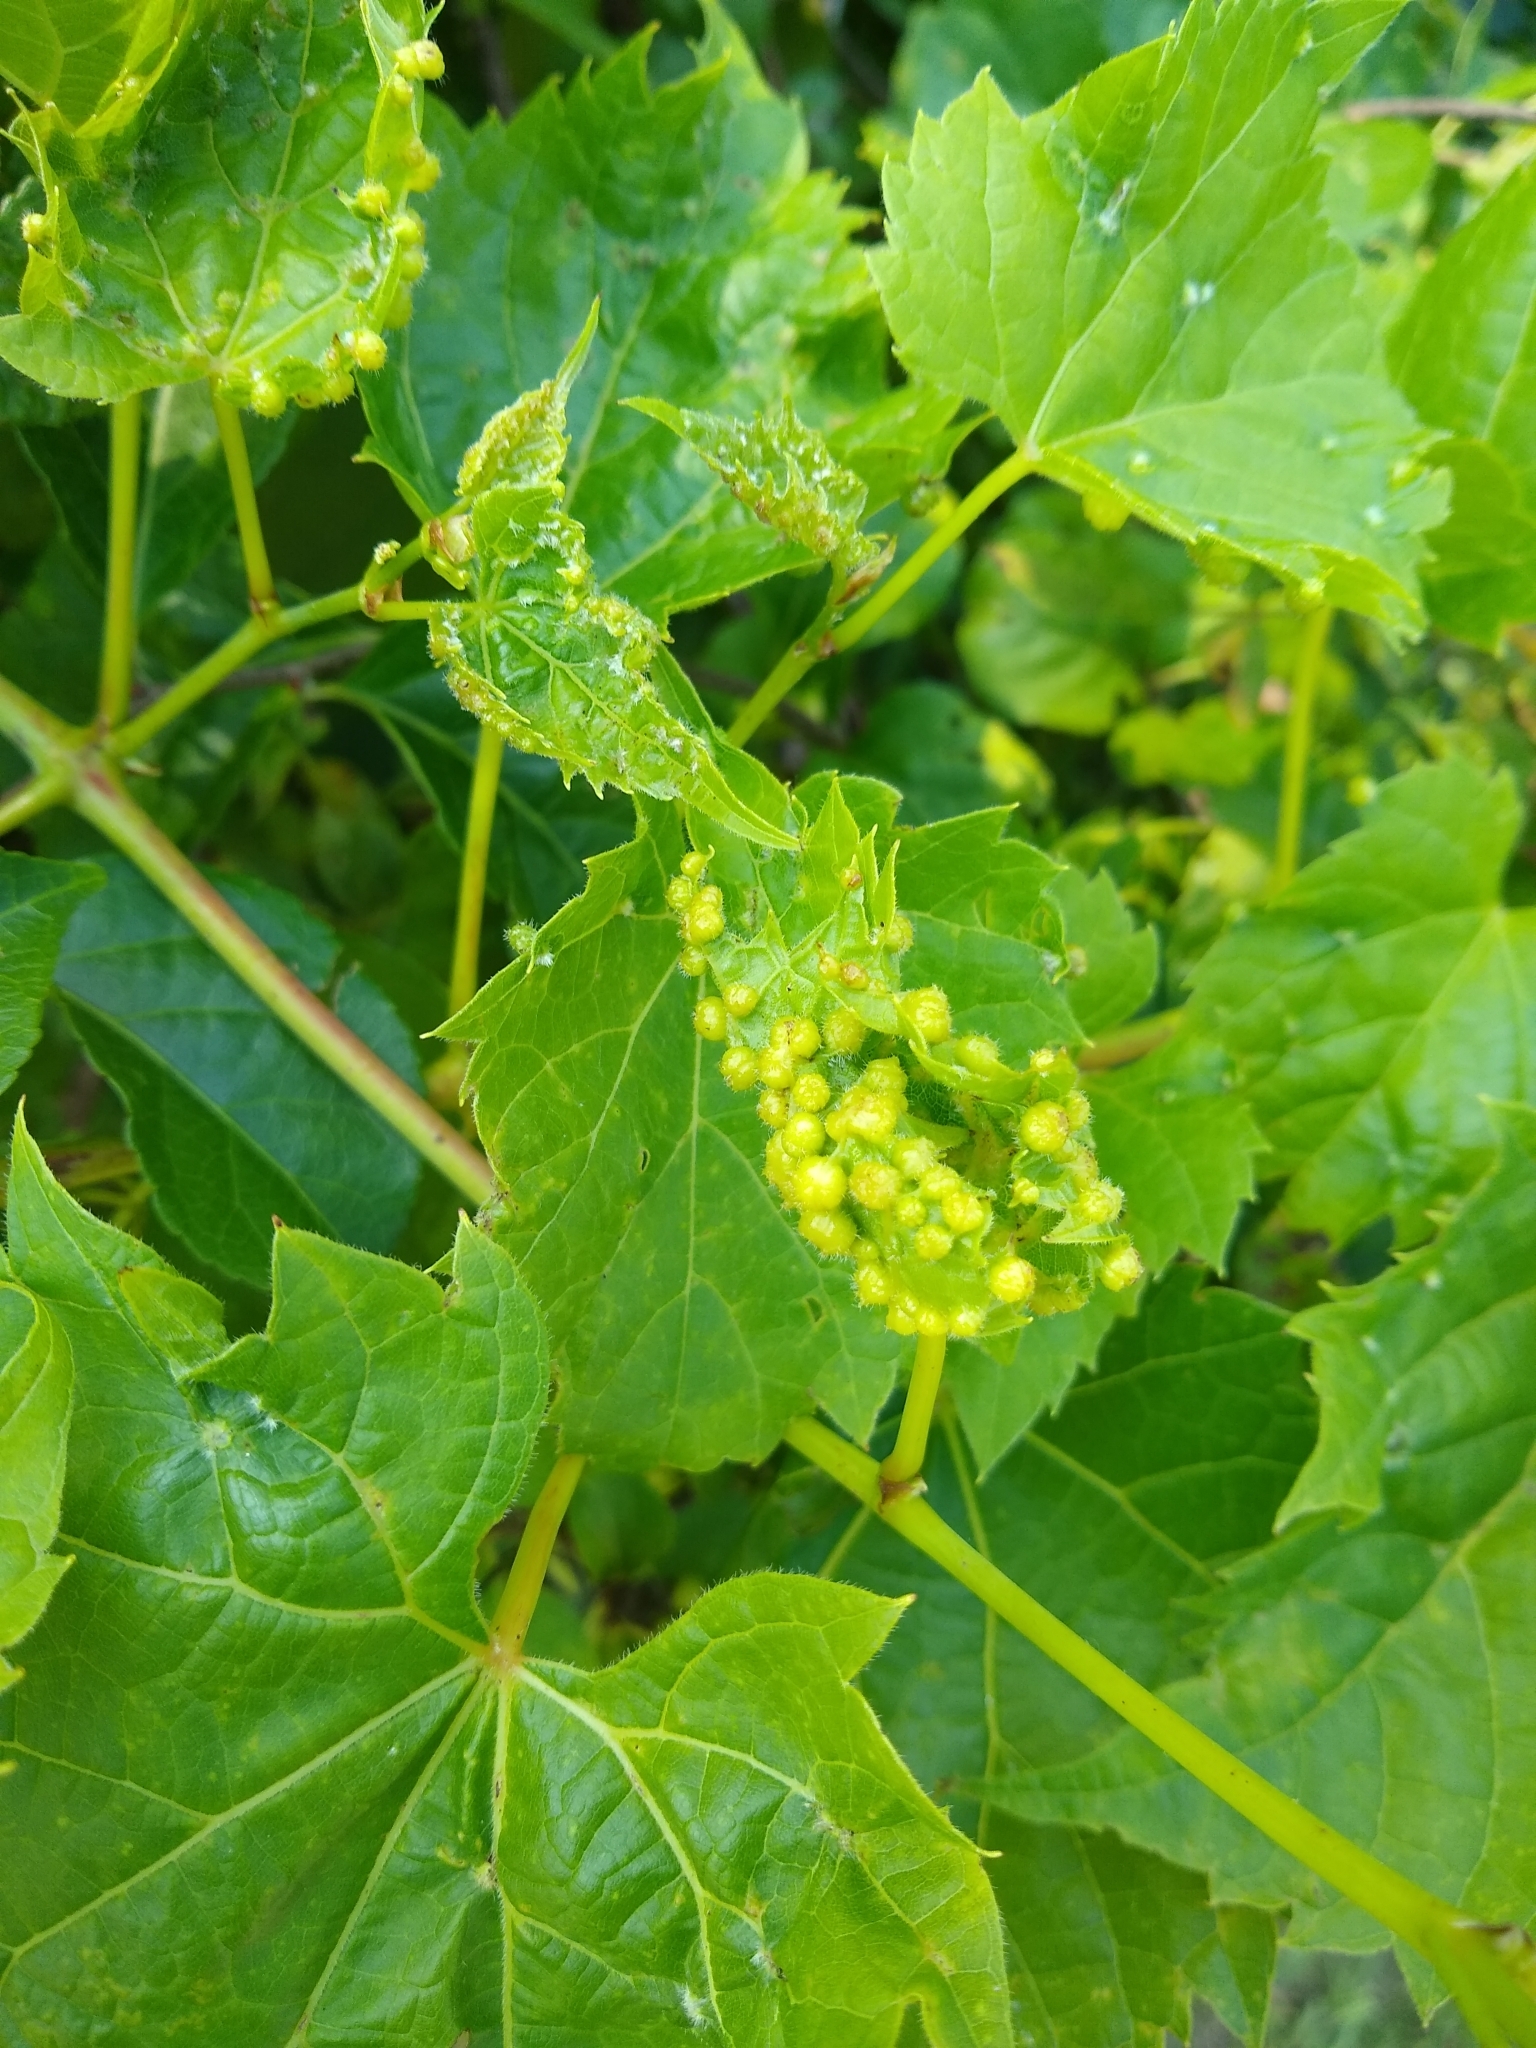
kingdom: Animalia
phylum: Arthropoda
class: Insecta
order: Hemiptera
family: Phylloxeridae
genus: Daktulosphaira
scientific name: Daktulosphaira vitifoliae
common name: Grape phylloxera
